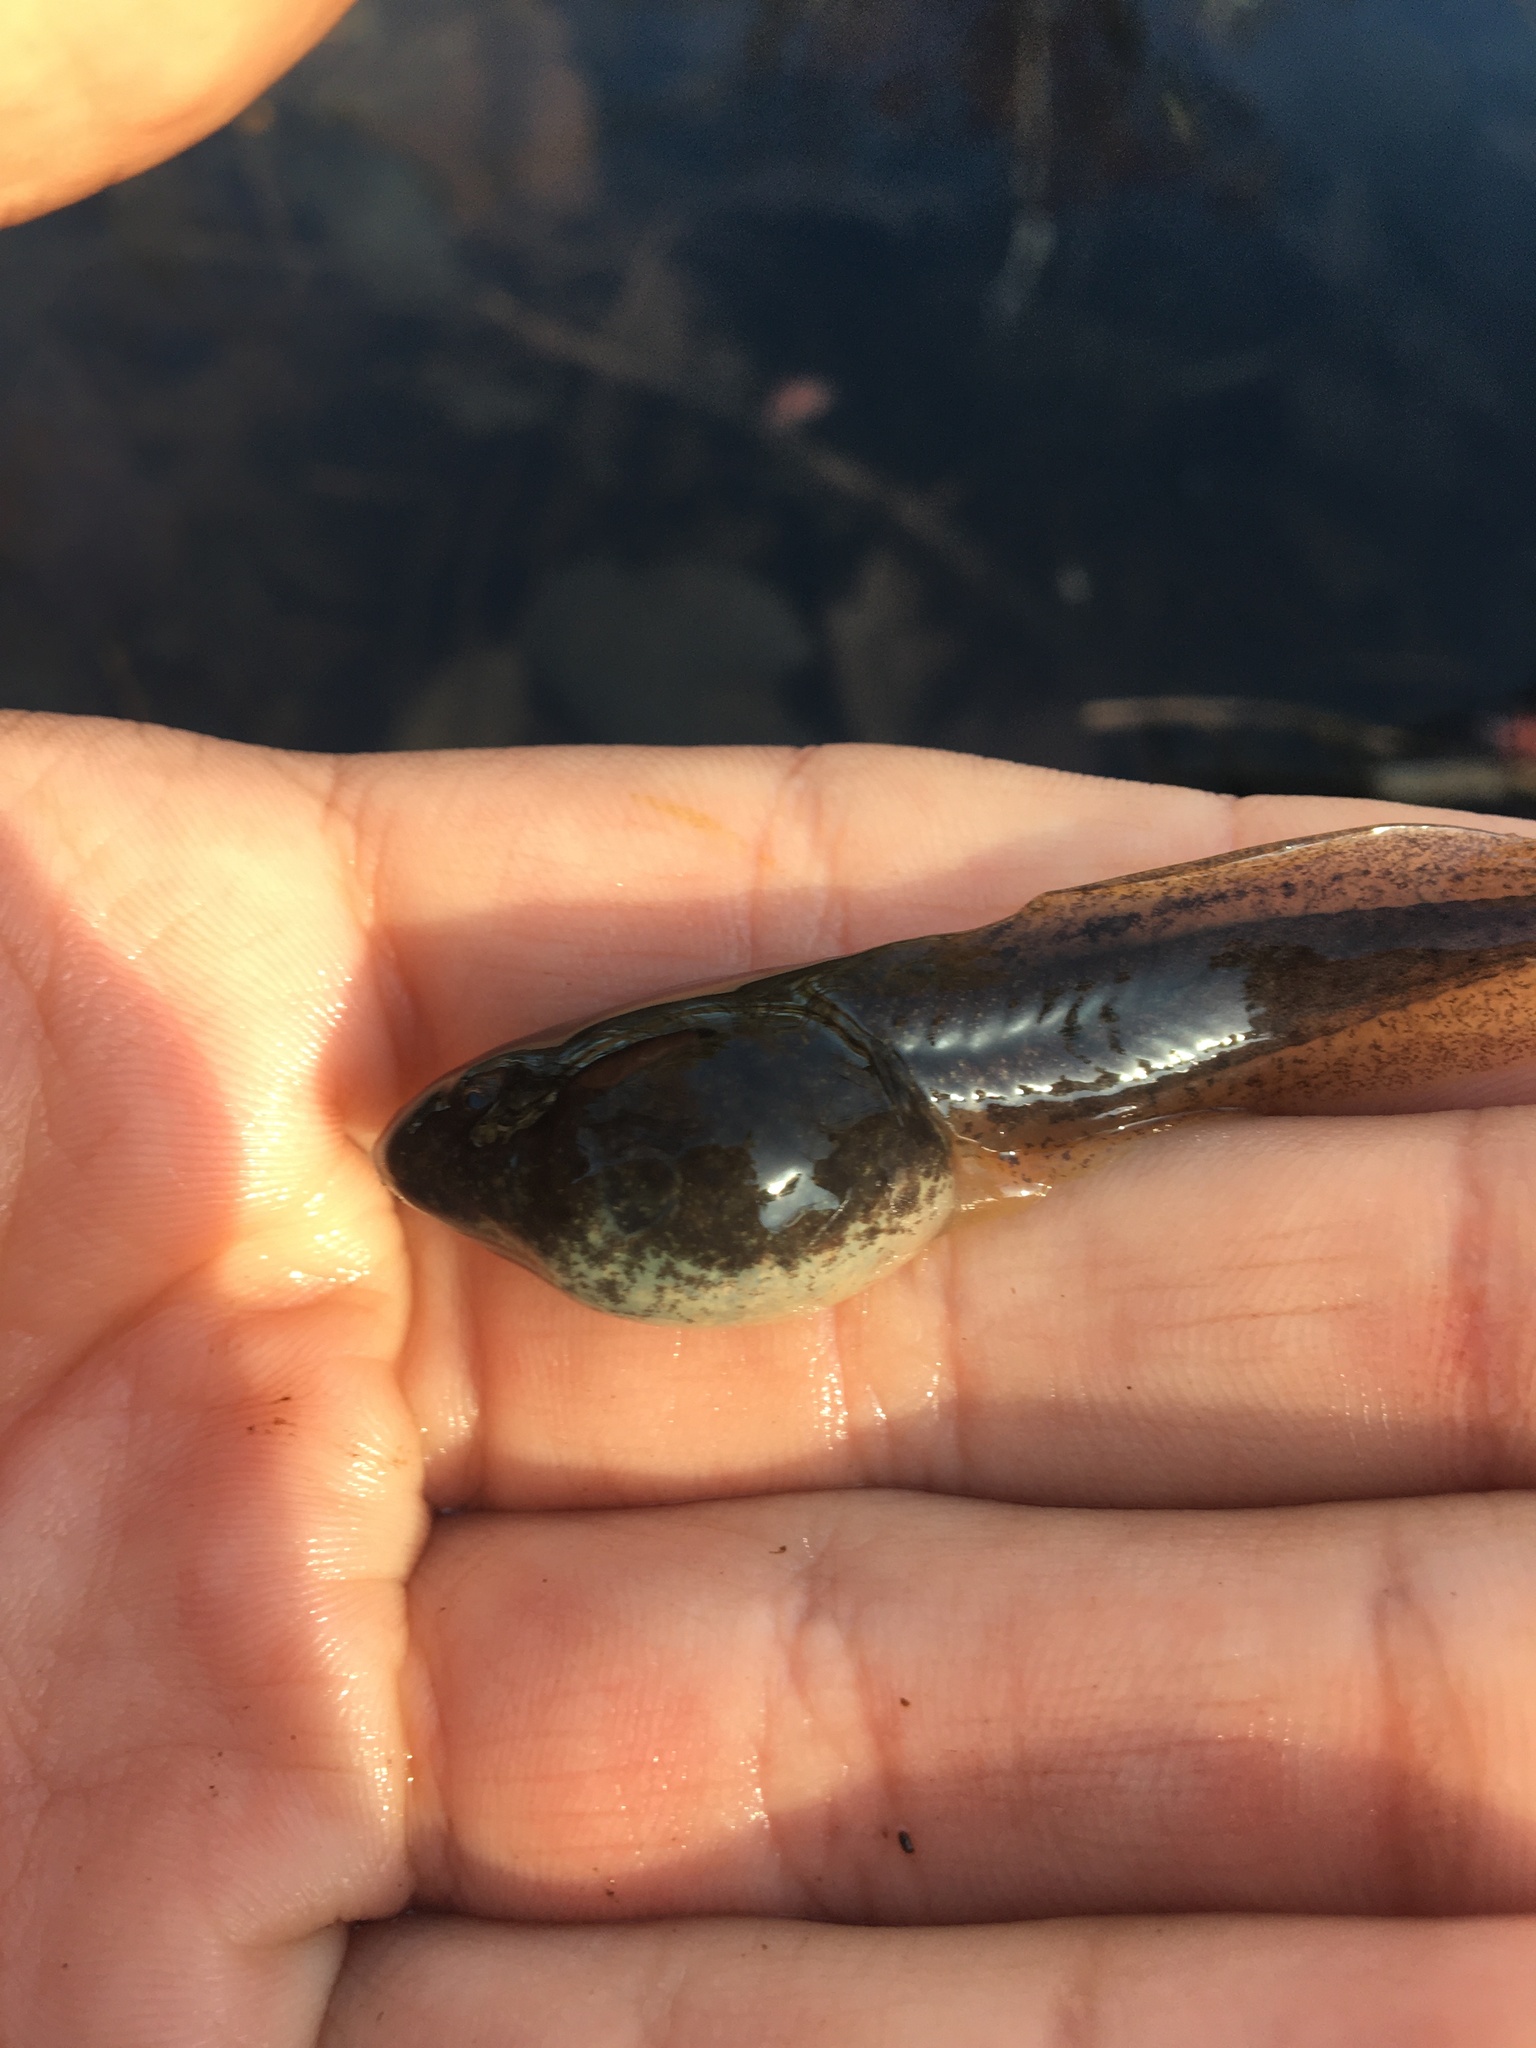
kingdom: Animalia
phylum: Chordata
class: Amphibia
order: Anura
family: Ranidae
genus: Lithobates
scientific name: Lithobates catesbeianus
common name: American bullfrog
